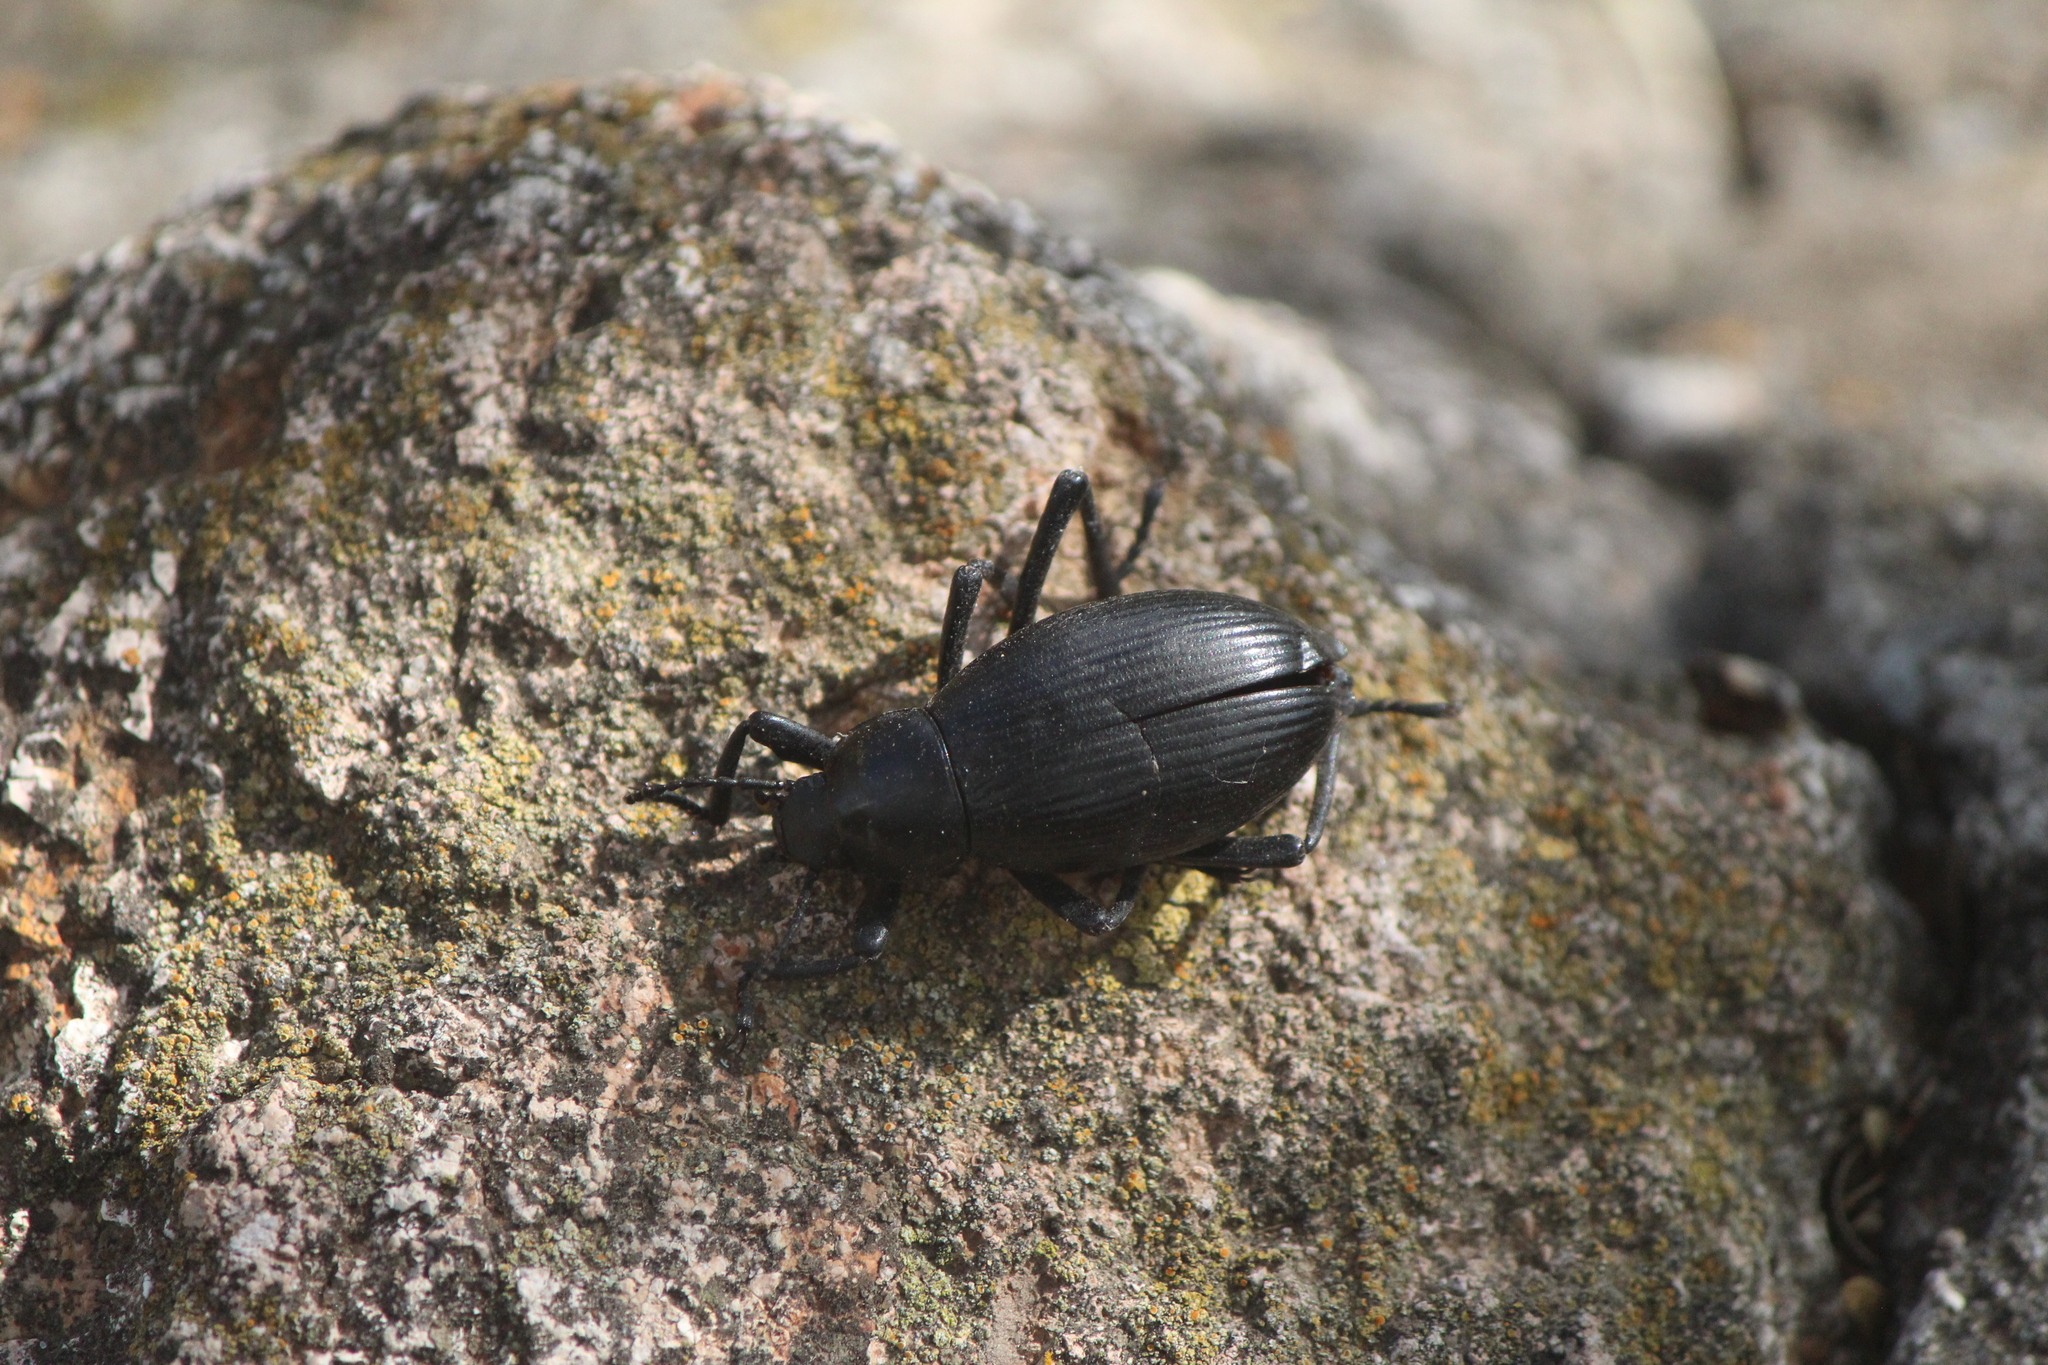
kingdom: Animalia
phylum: Arthropoda
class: Insecta
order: Coleoptera
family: Tenebrionidae
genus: Eleodes
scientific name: Eleodes spinipes
